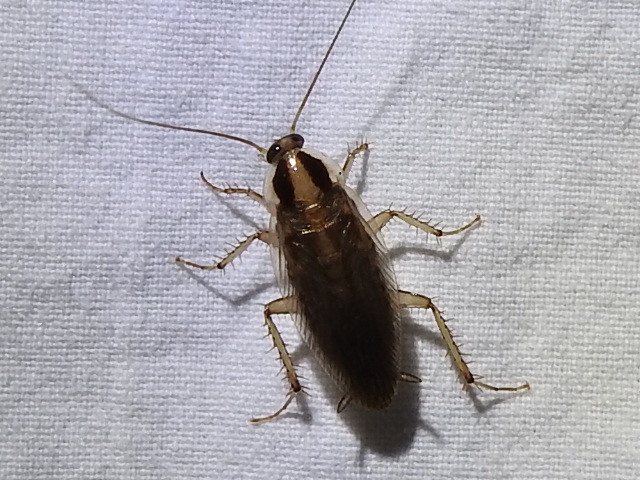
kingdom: Animalia
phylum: Arthropoda
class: Insecta
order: Blattodea
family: Ectobiidae
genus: Blattella
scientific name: Blattella vaga
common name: Field cockroach
